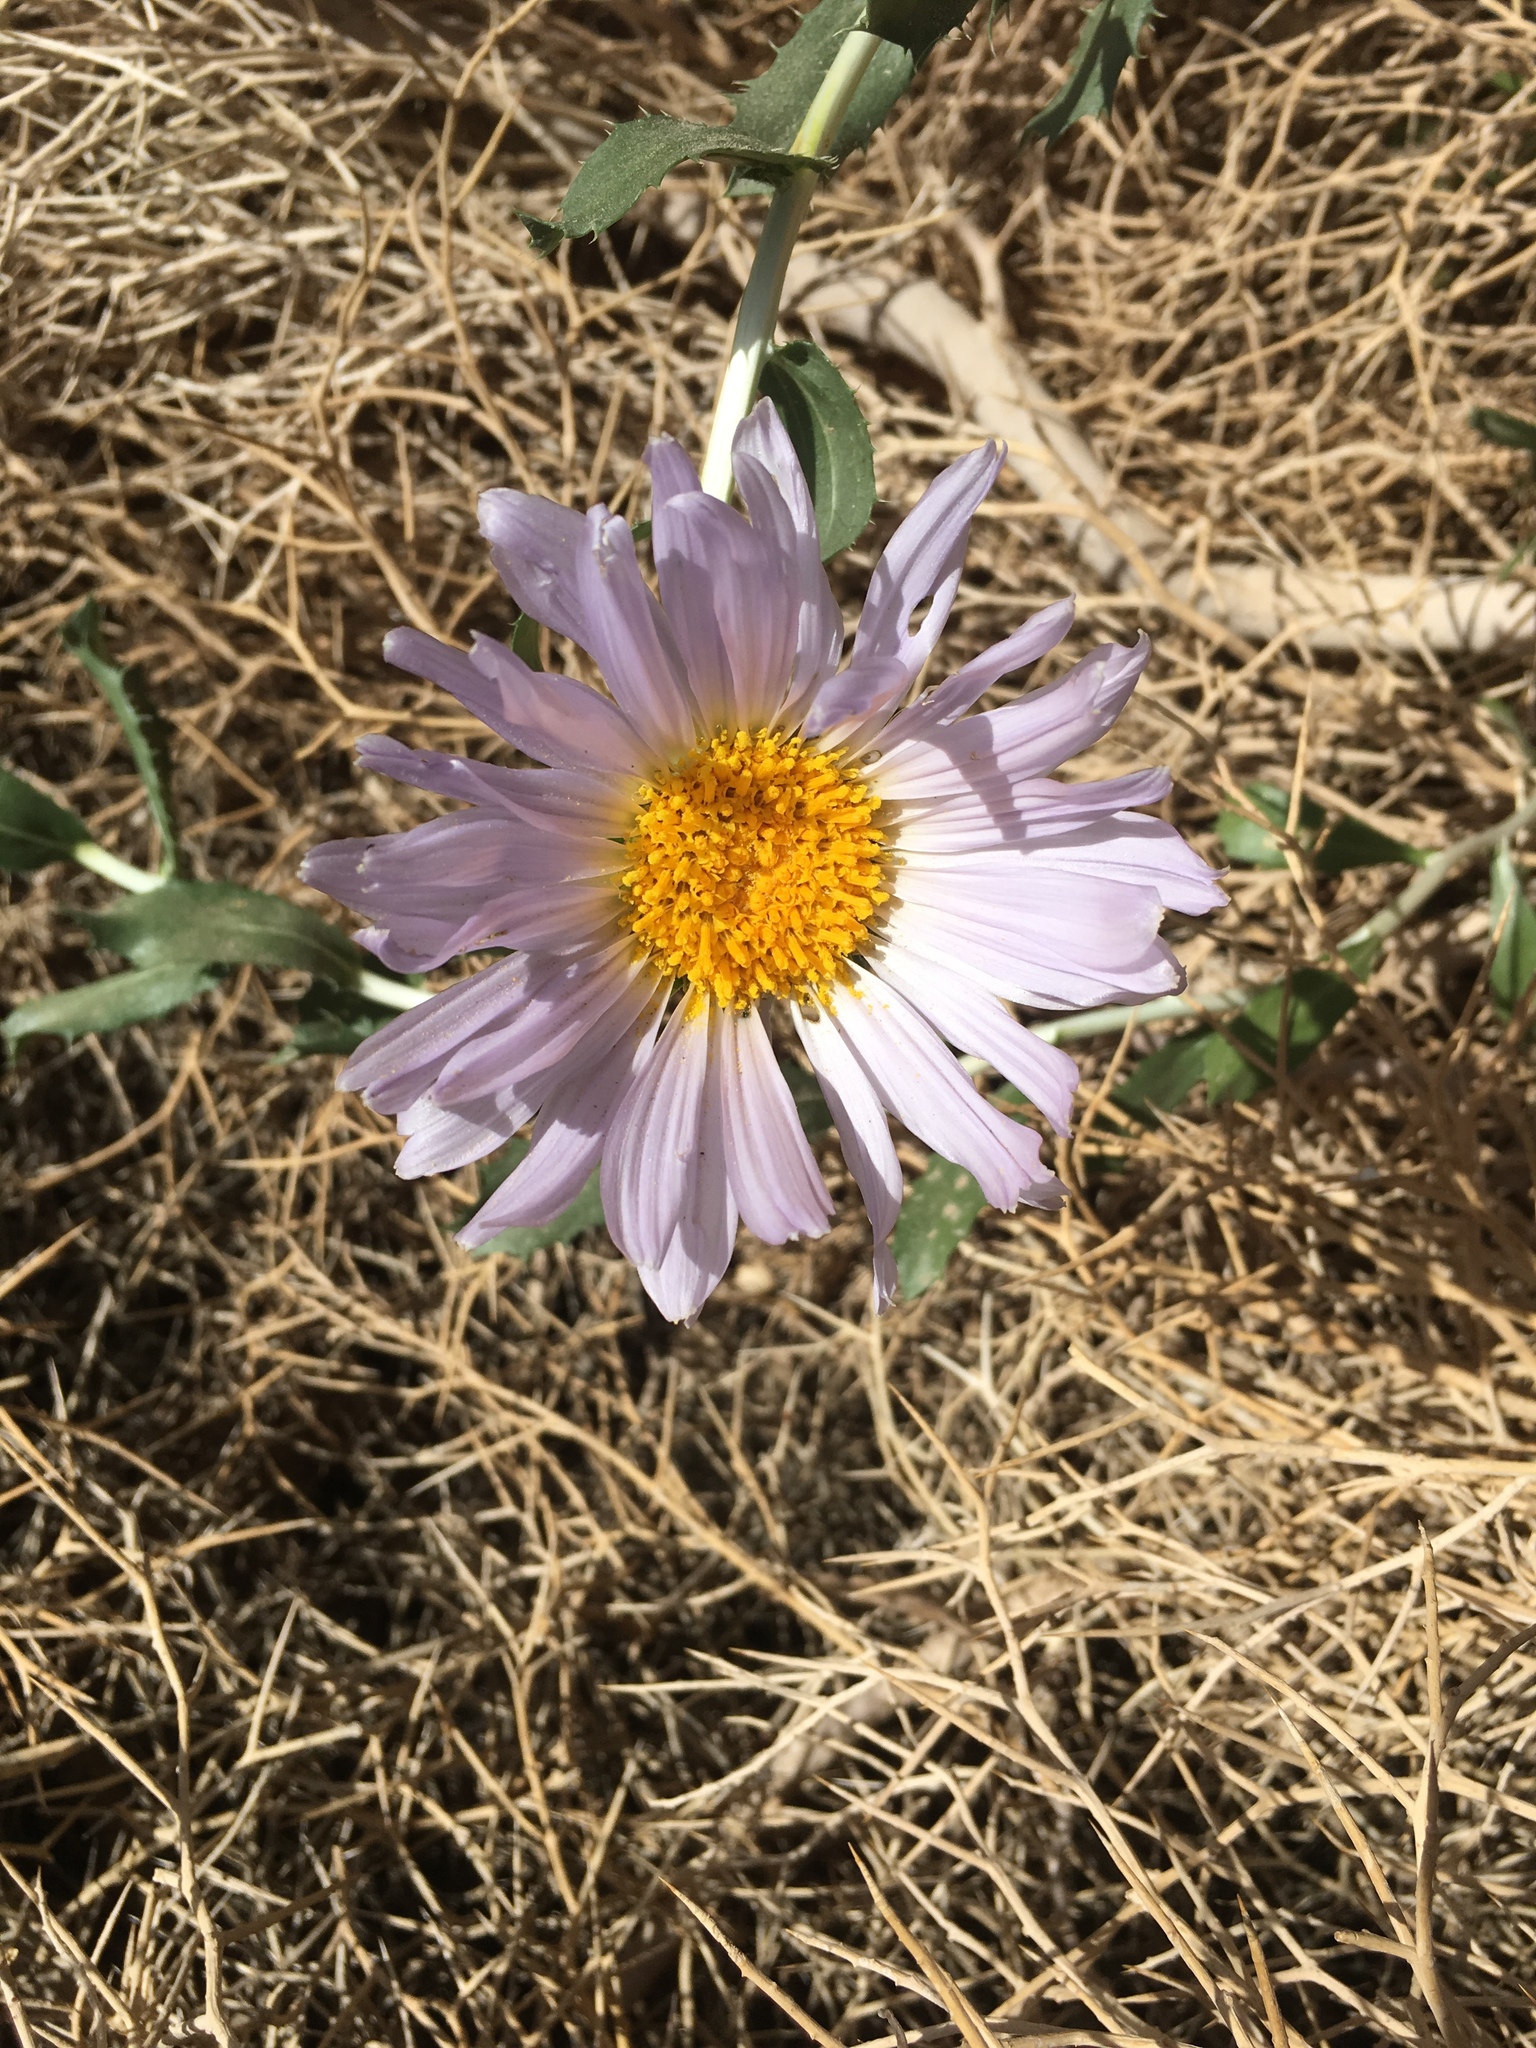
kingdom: Plantae
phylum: Tracheophyta
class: Magnoliopsida
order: Asterales
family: Asteraceae
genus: Xylorhiza
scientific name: Xylorhiza orcuttii
